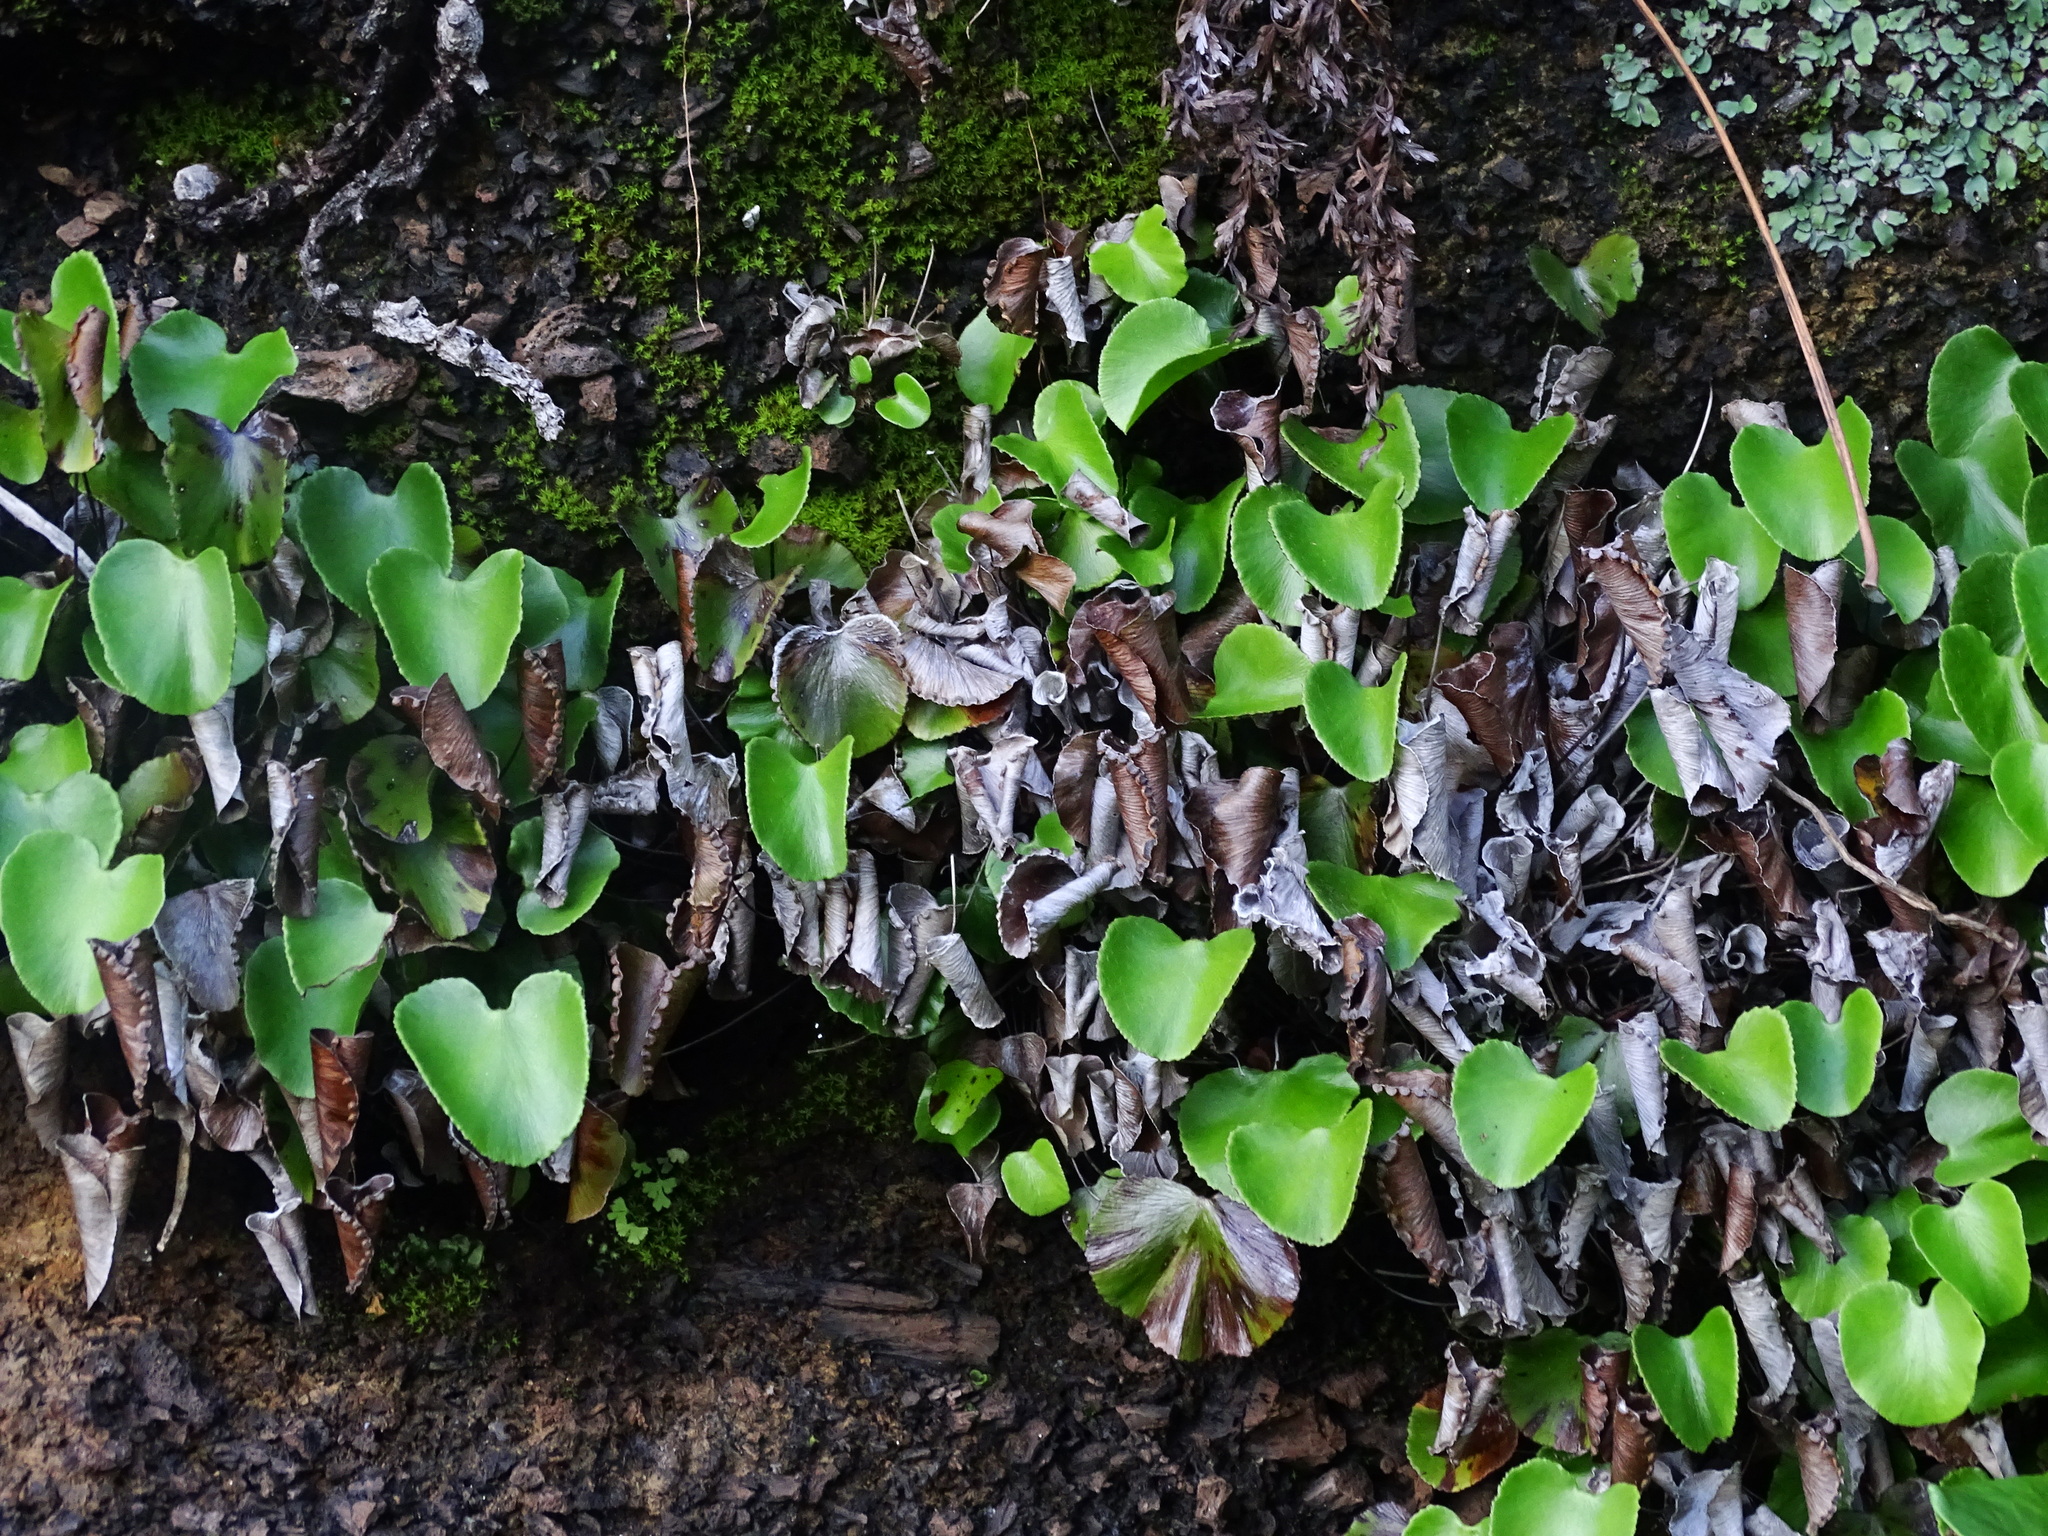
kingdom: Plantae
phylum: Tracheophyta
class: Polypodiopsida
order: Polypodiales
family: Pteridaceae
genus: Adiantum
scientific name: Adiantum reniforme
